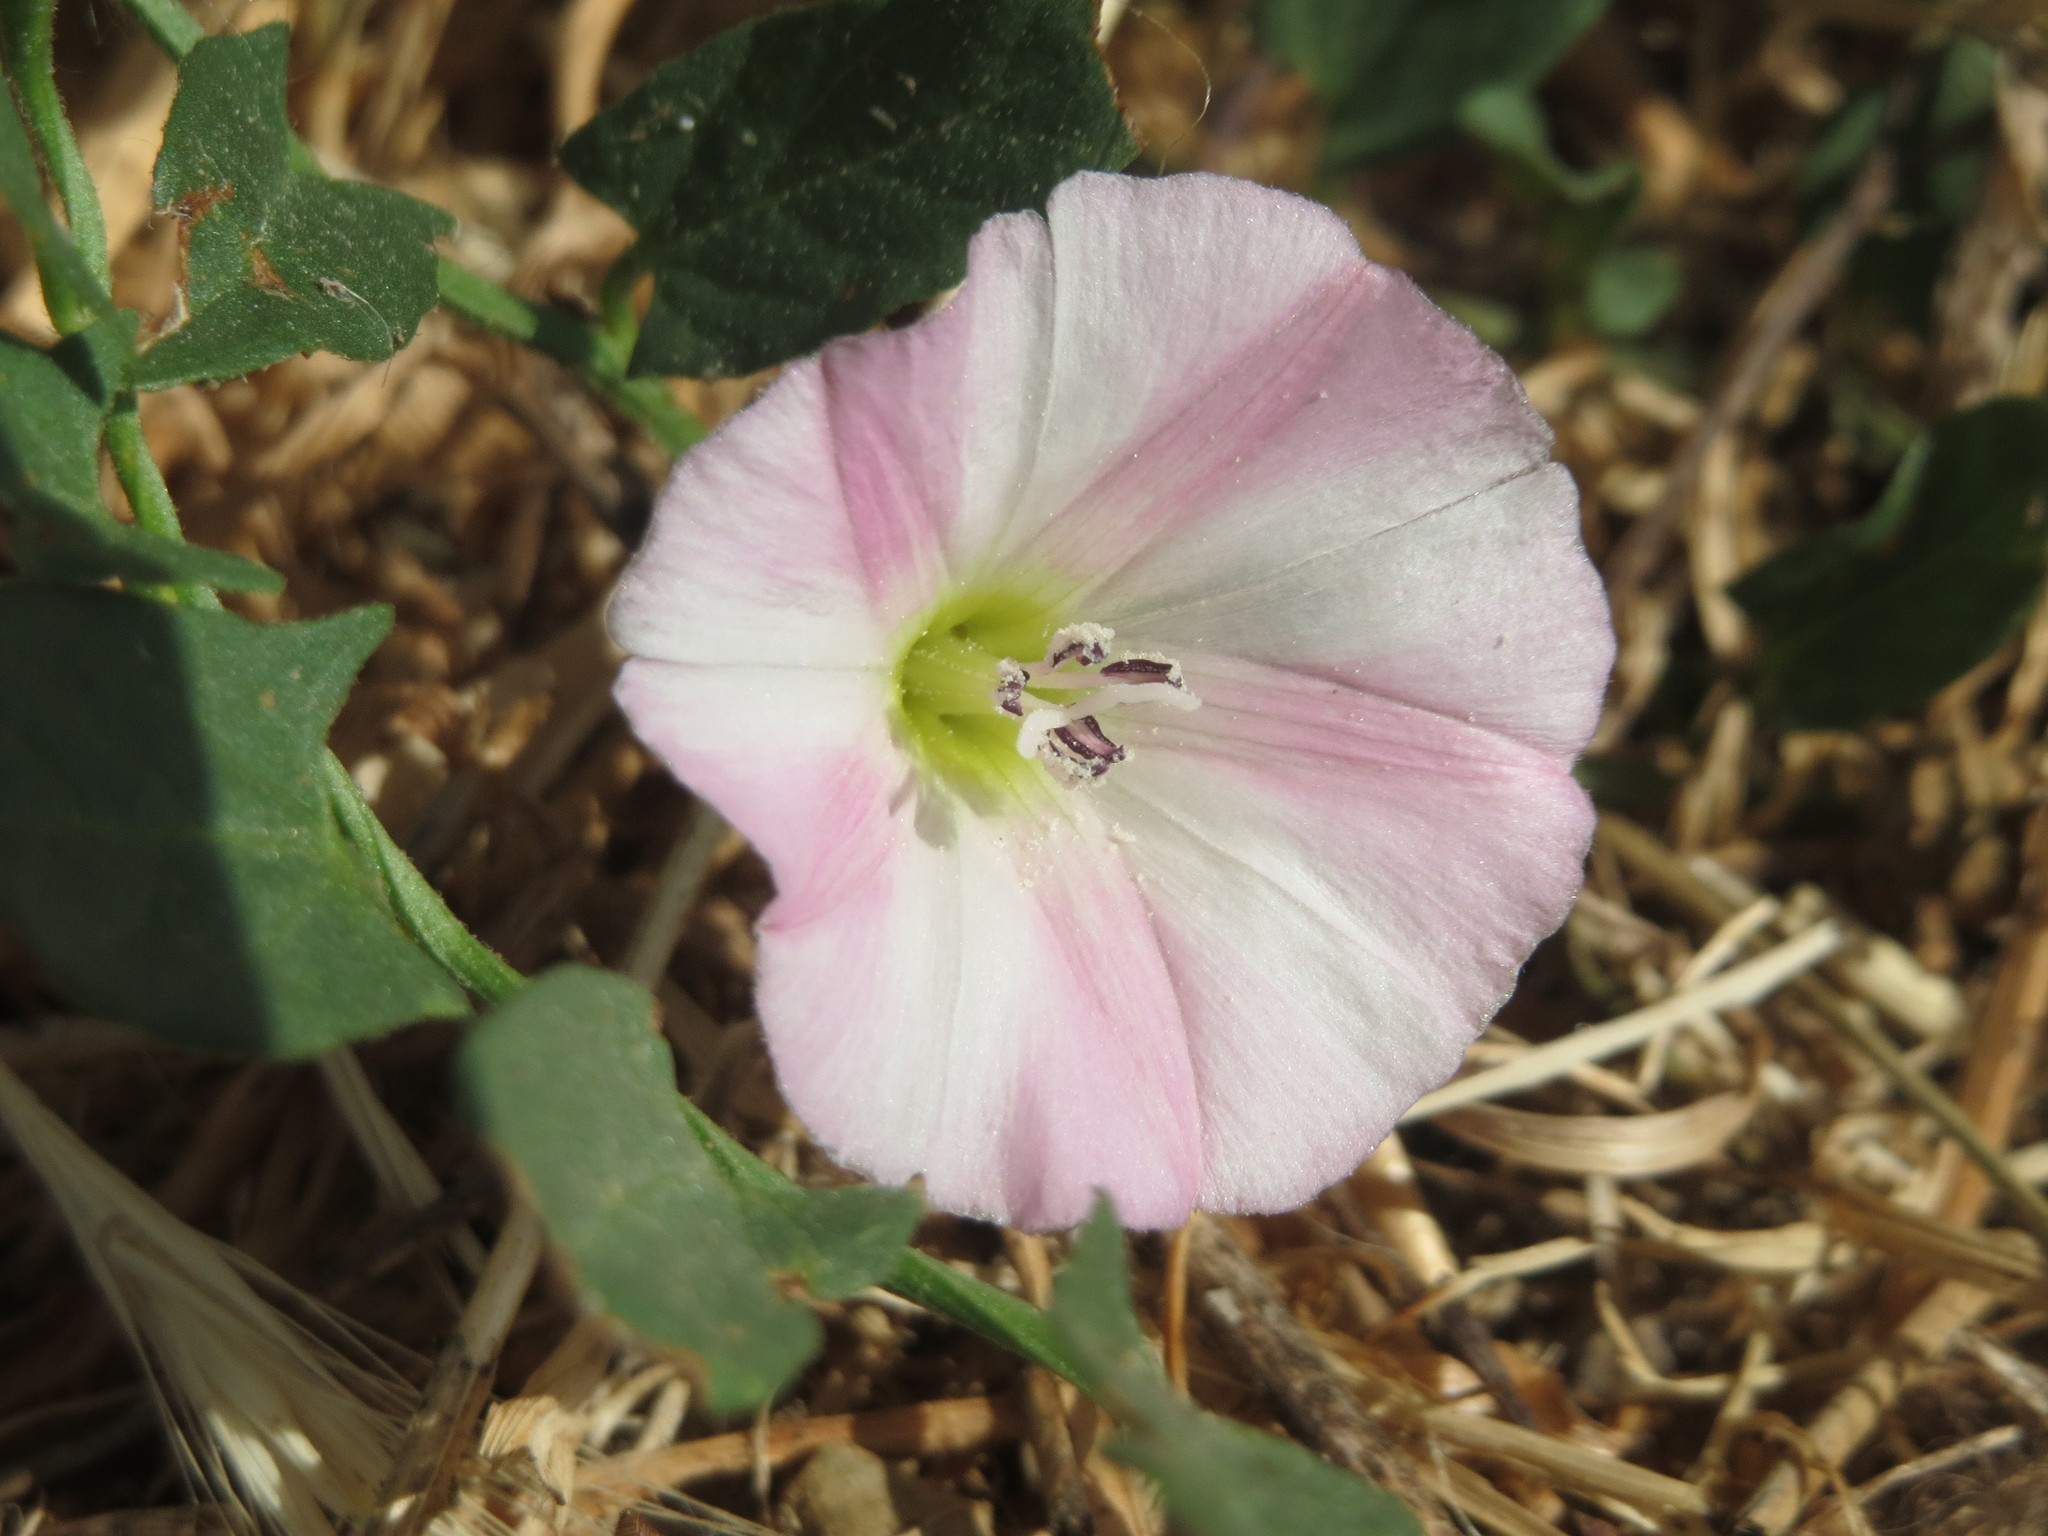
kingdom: Plantae
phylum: Tracheophyta
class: Magnoliopsida
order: Solanales
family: Convolvulaceae
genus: Convolvulus
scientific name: Convolvulus arvensis
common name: Field bindweed
